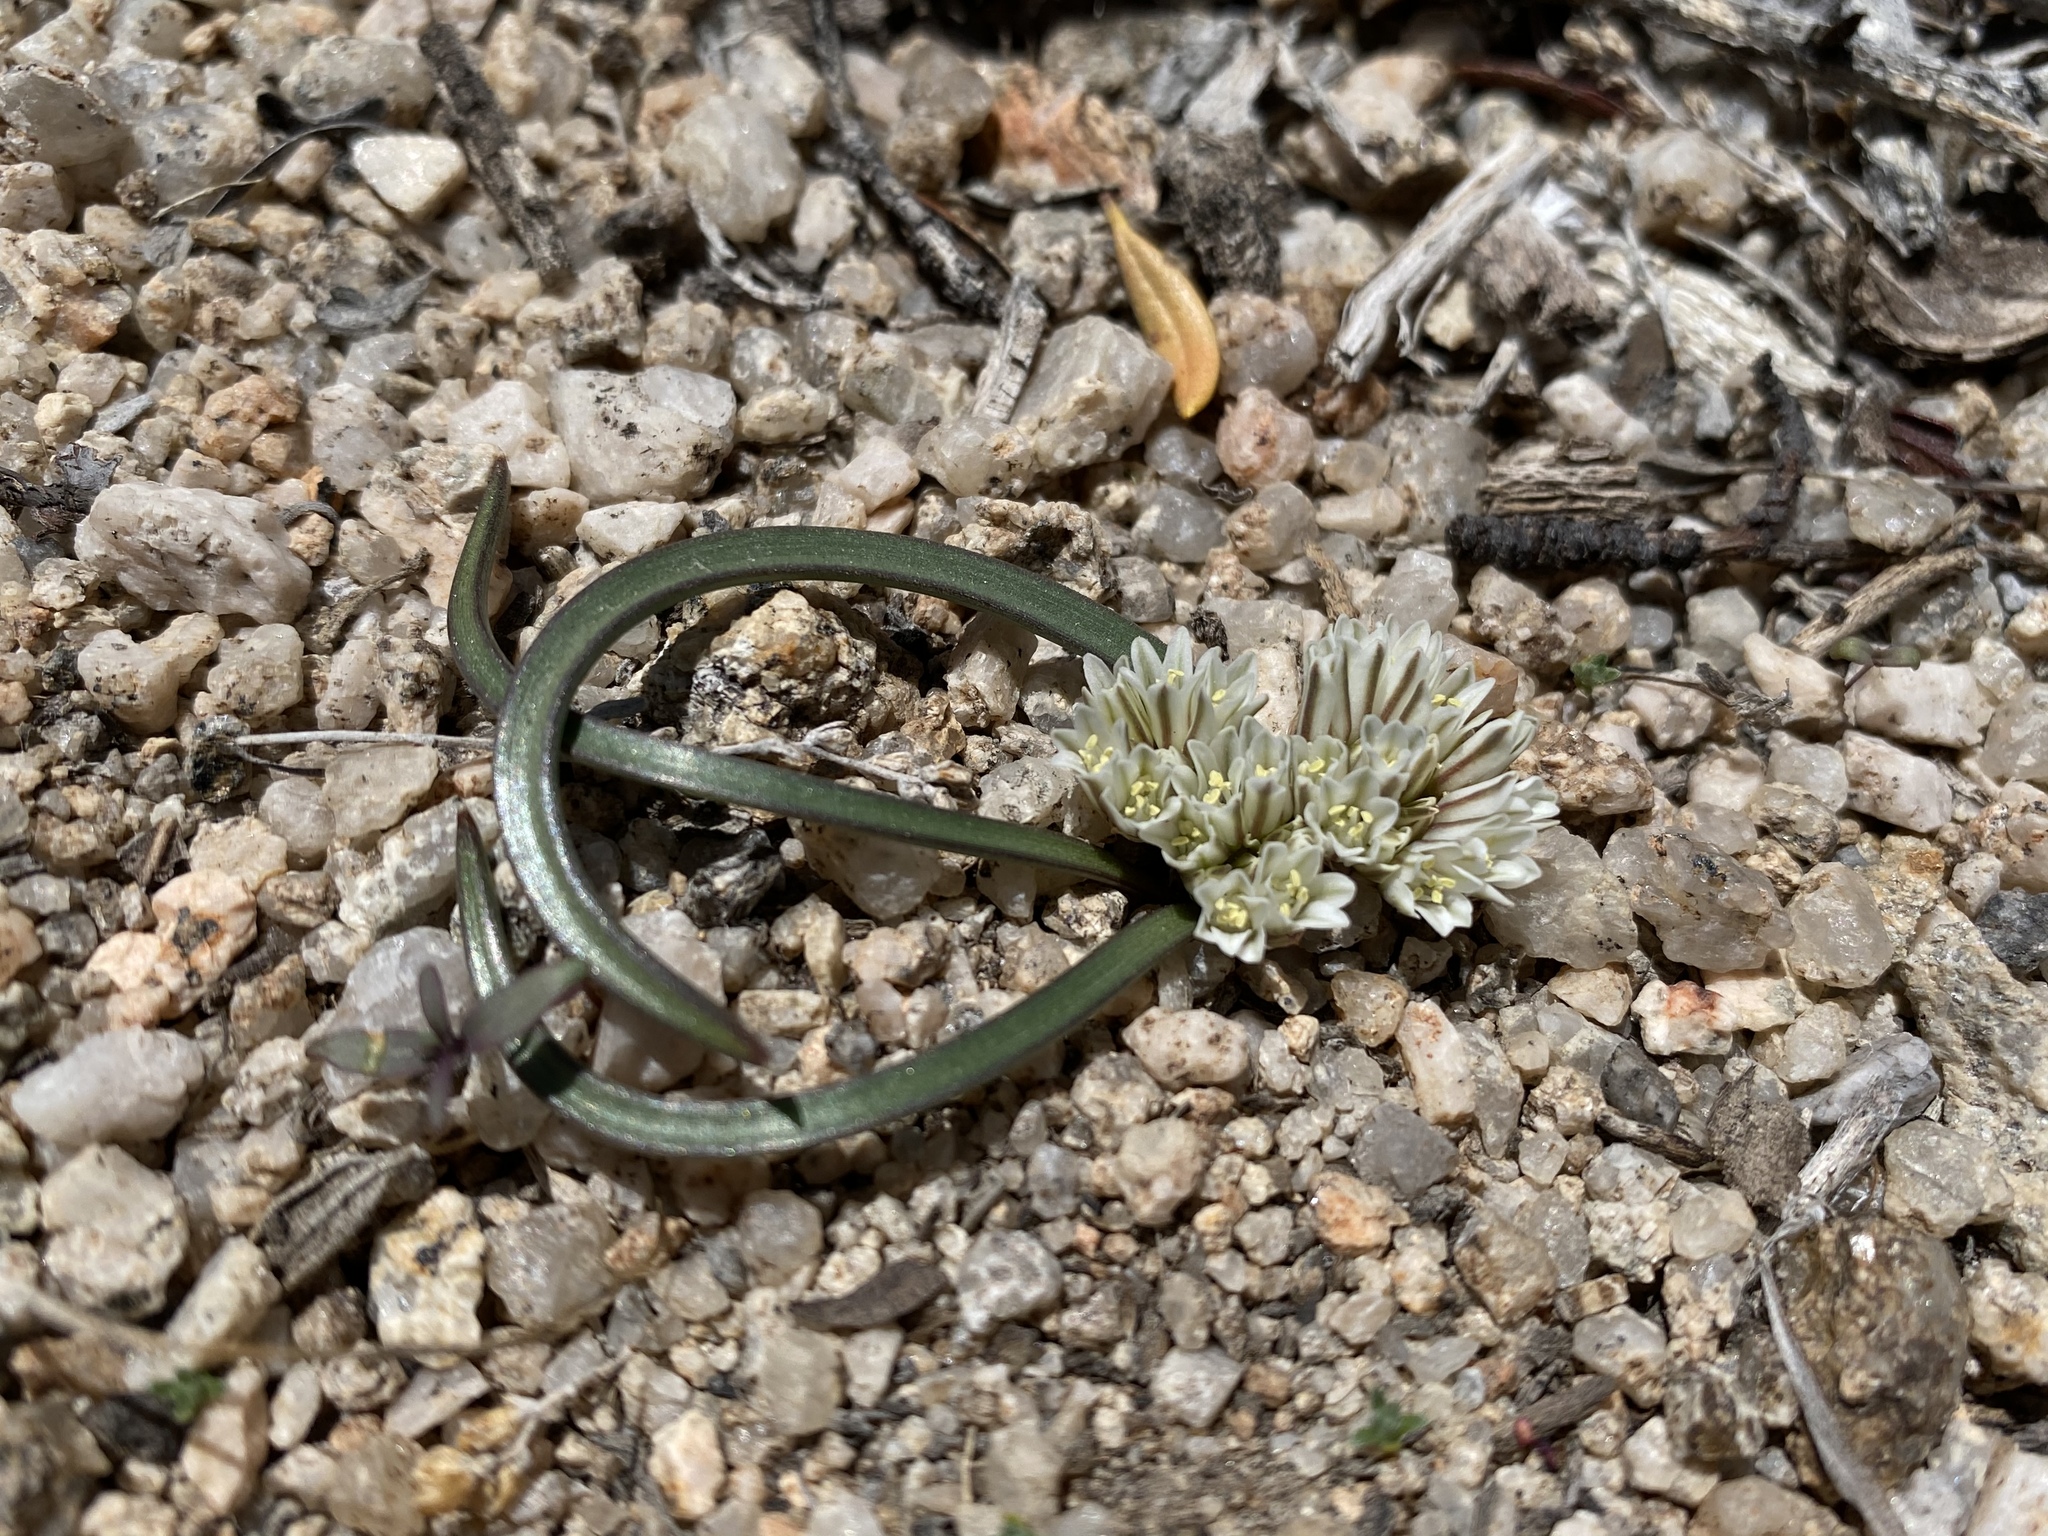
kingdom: Plantae
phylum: Tracheophyta
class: Liliopsida
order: Asparagales
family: Amaryllidaceae
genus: Allium
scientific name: Allium parvum
